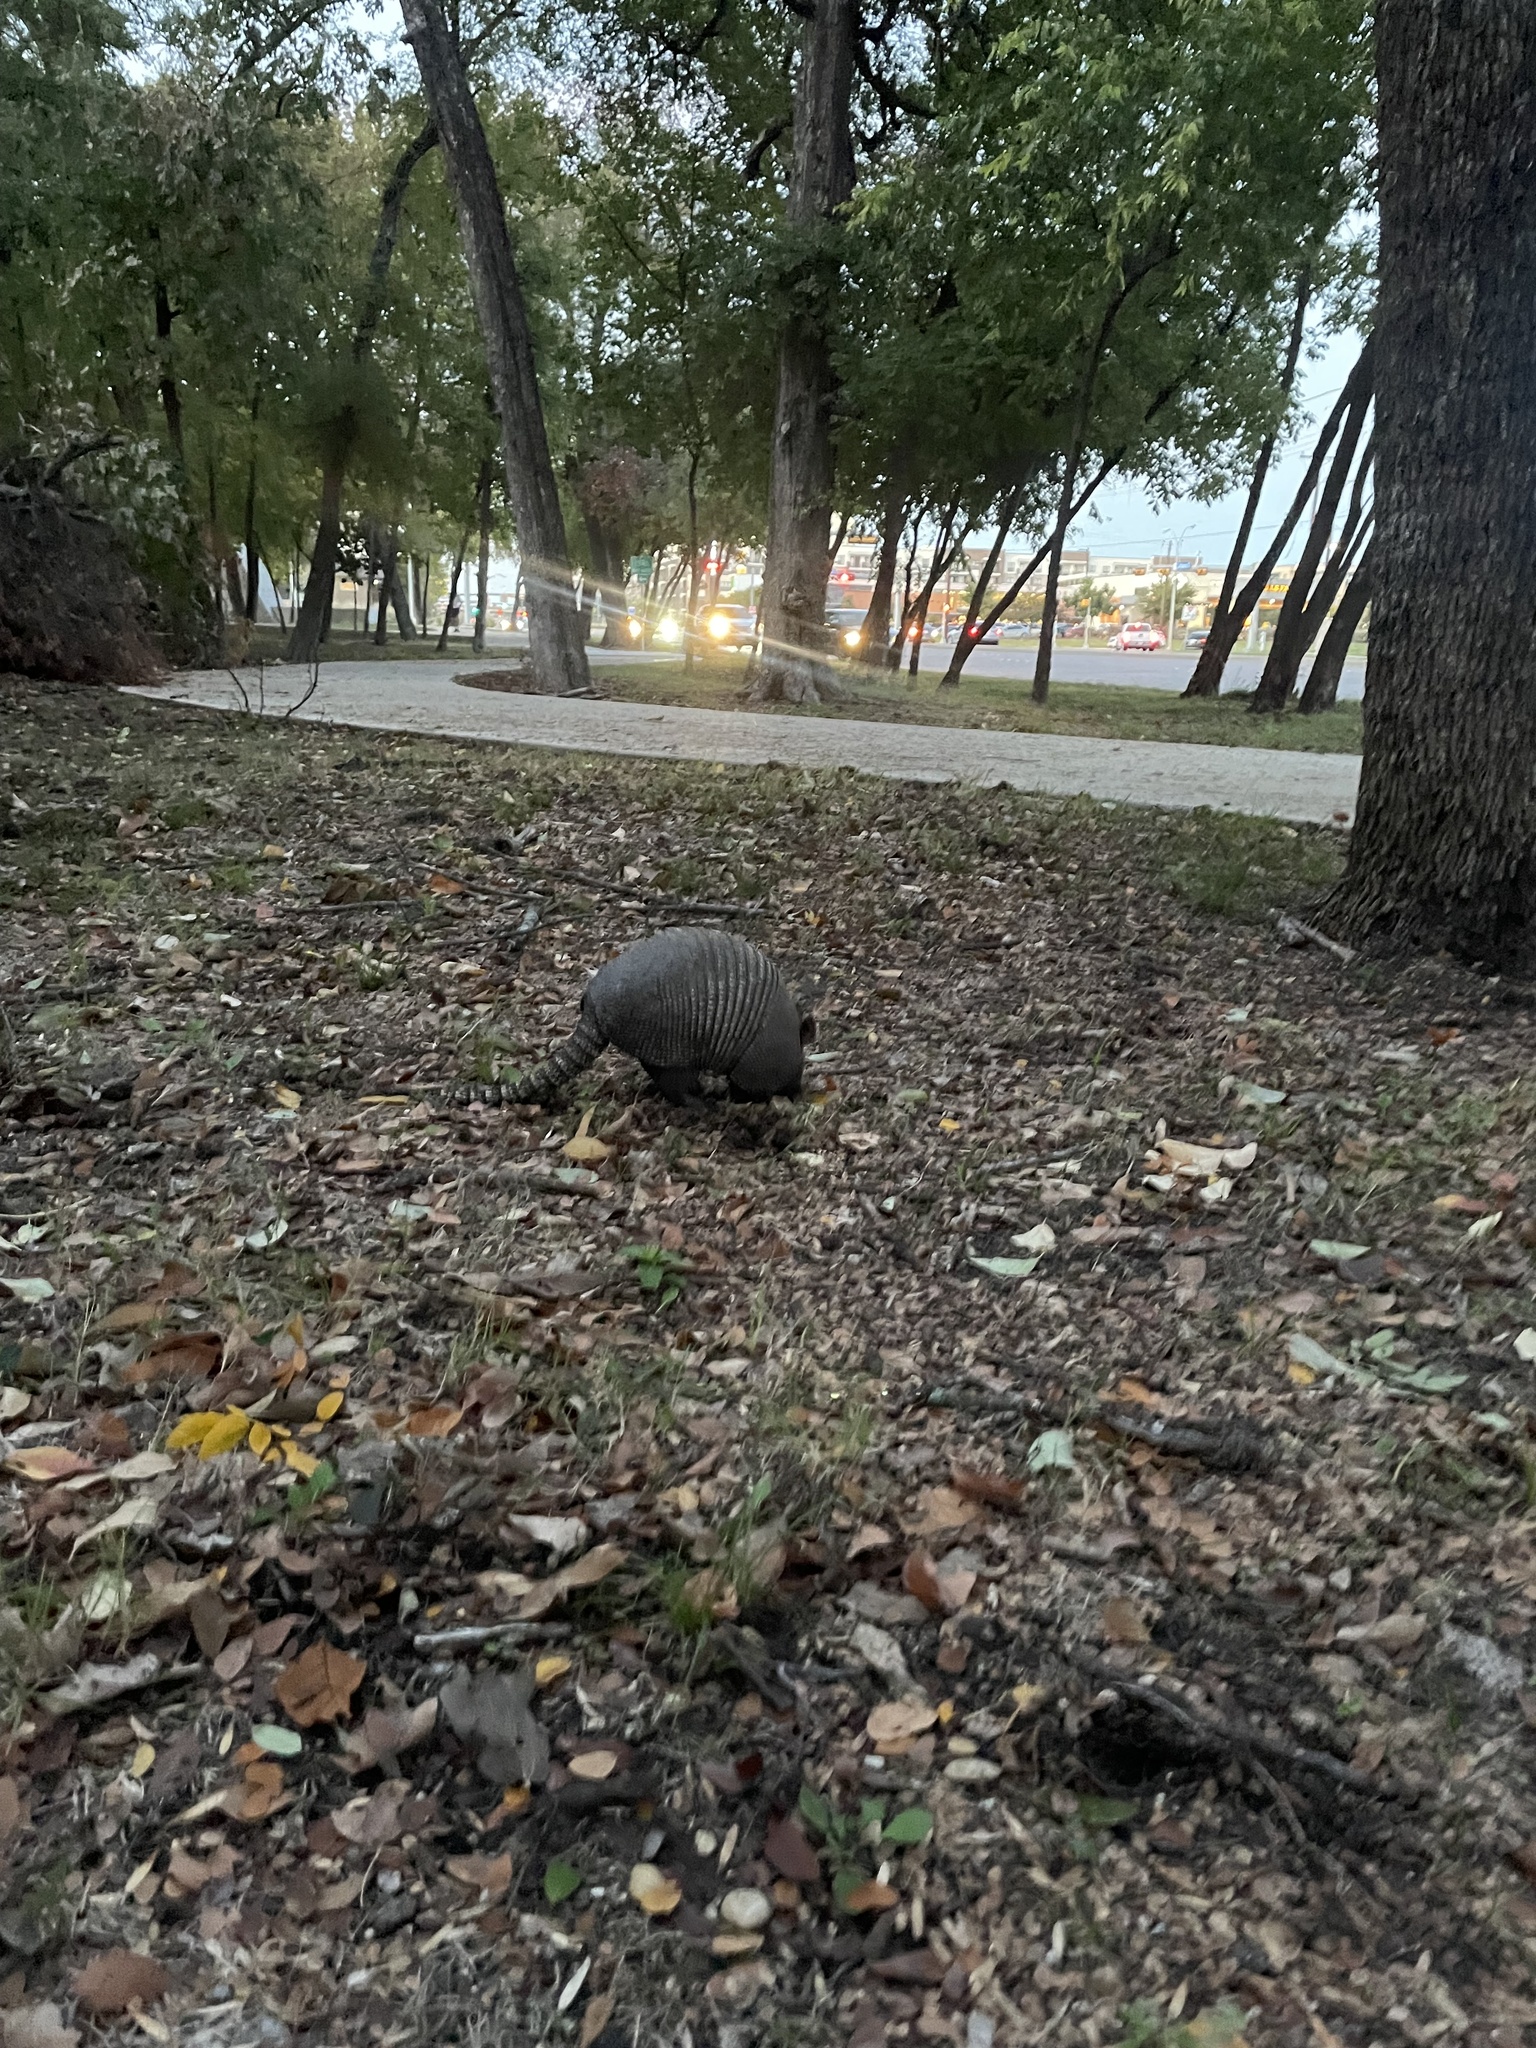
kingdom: Animalia
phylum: Chordata
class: Mammalia
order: Cingulata
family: Dasypodidae
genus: Dasypus
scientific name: Dasypus novemcinctus
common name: Nine-banded armadillo
